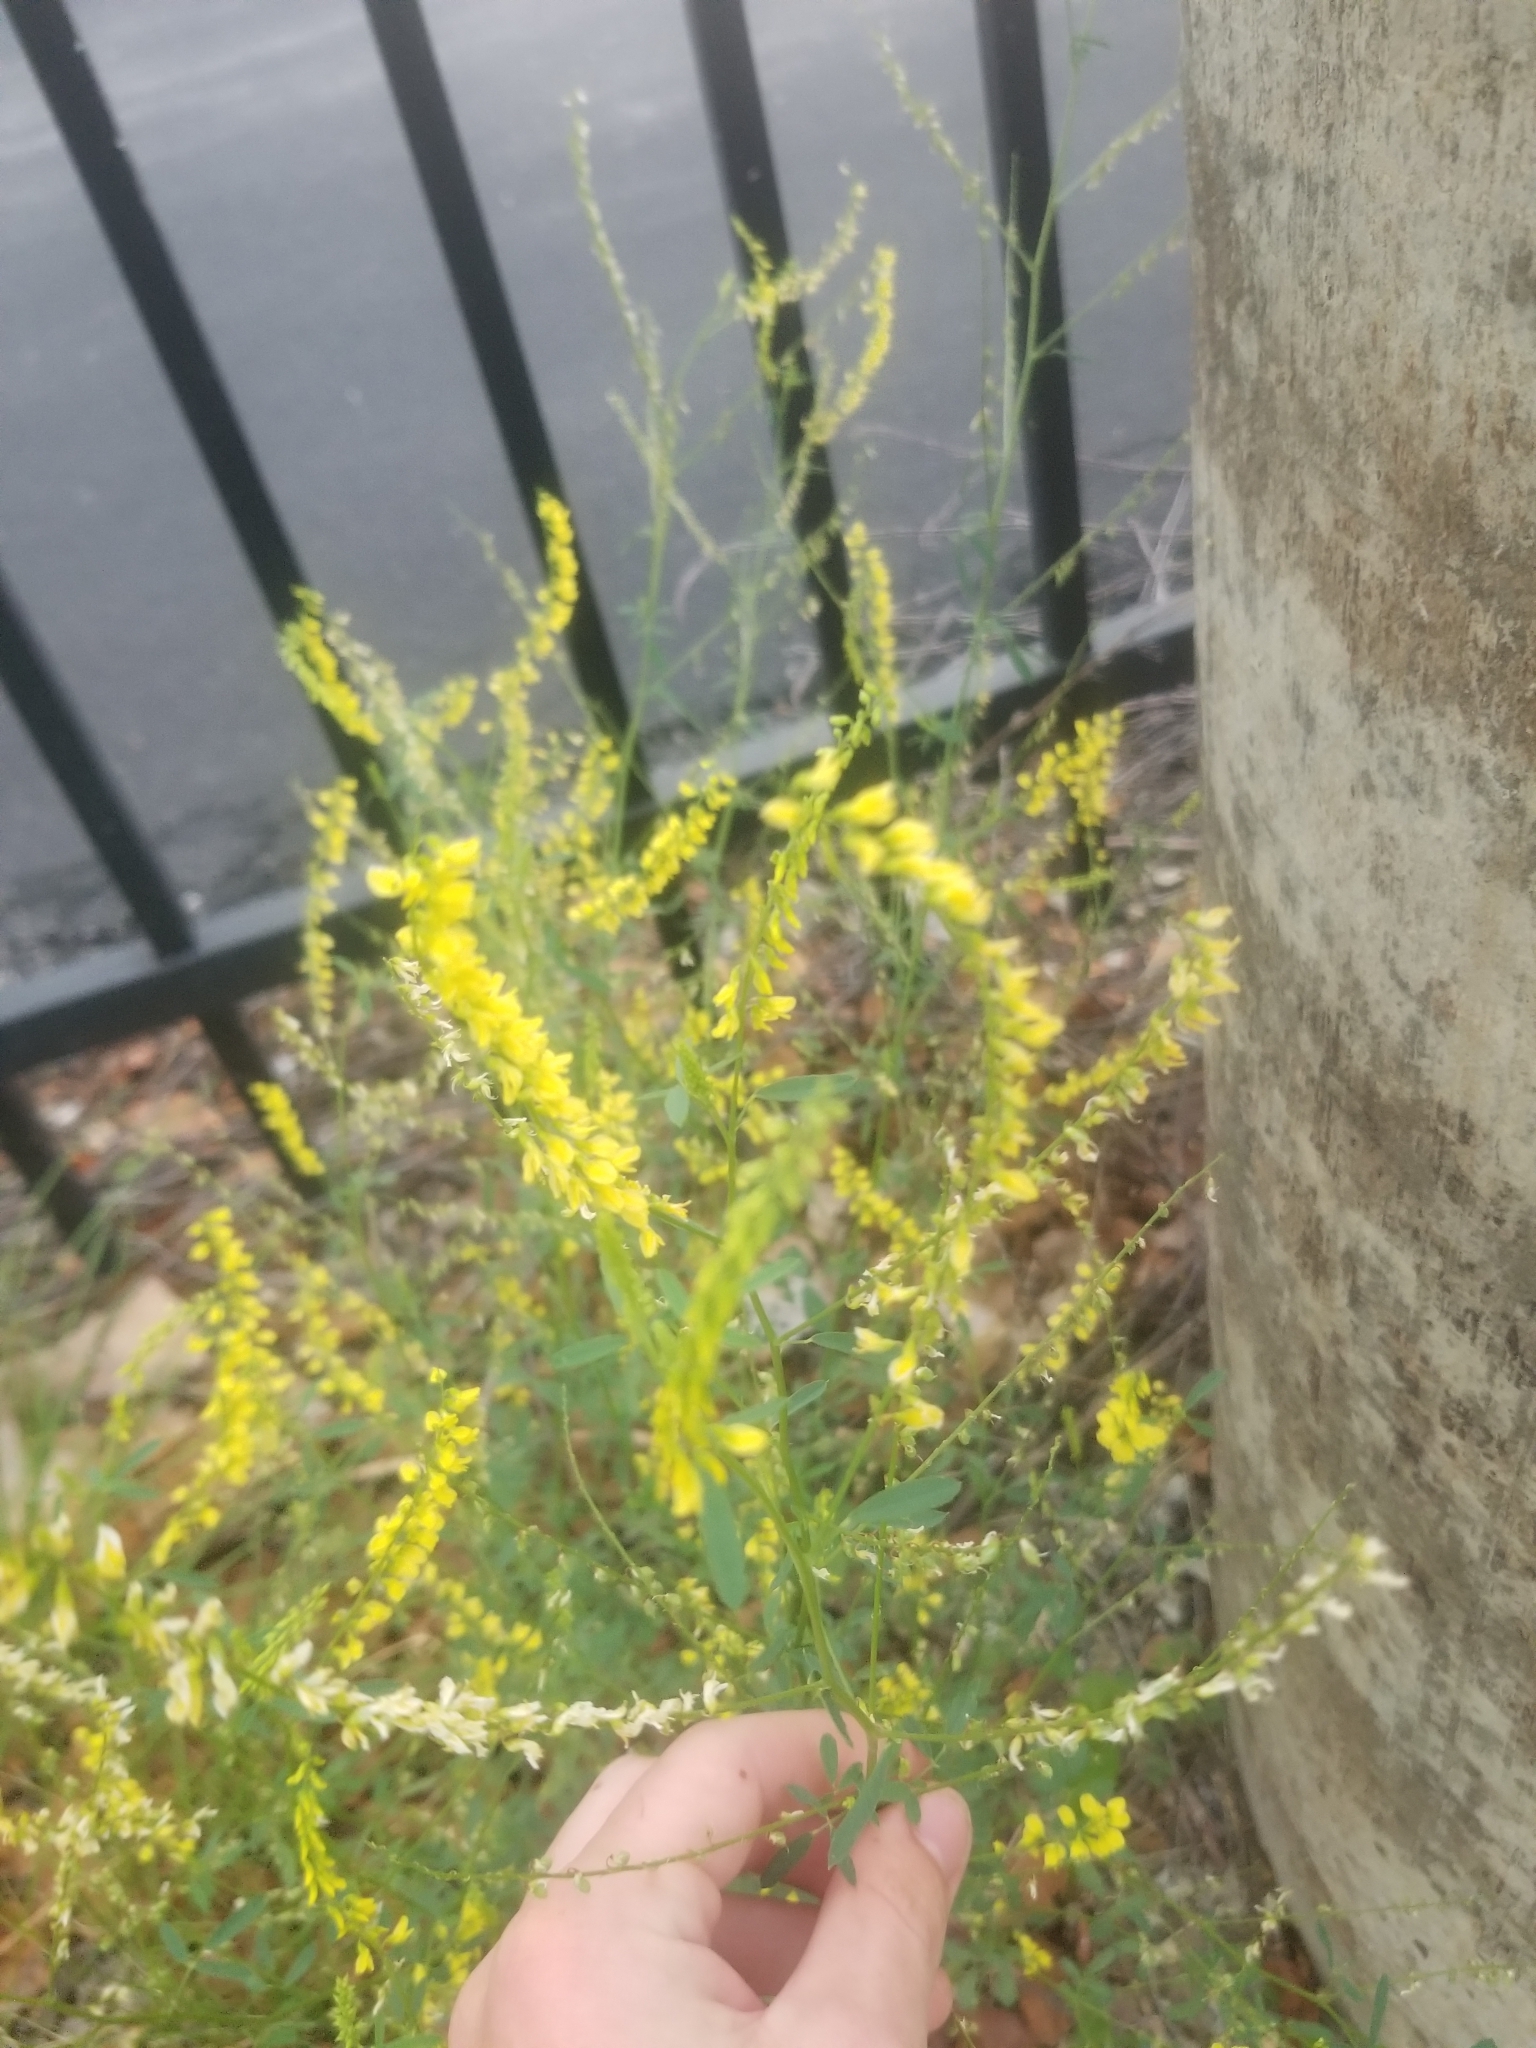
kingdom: Plantae
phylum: Tracheophyta
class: Magnoliopsida
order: Fabales
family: Fabaceae
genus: Melilotus
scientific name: Melilotus officinalis
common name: Sweetclover
